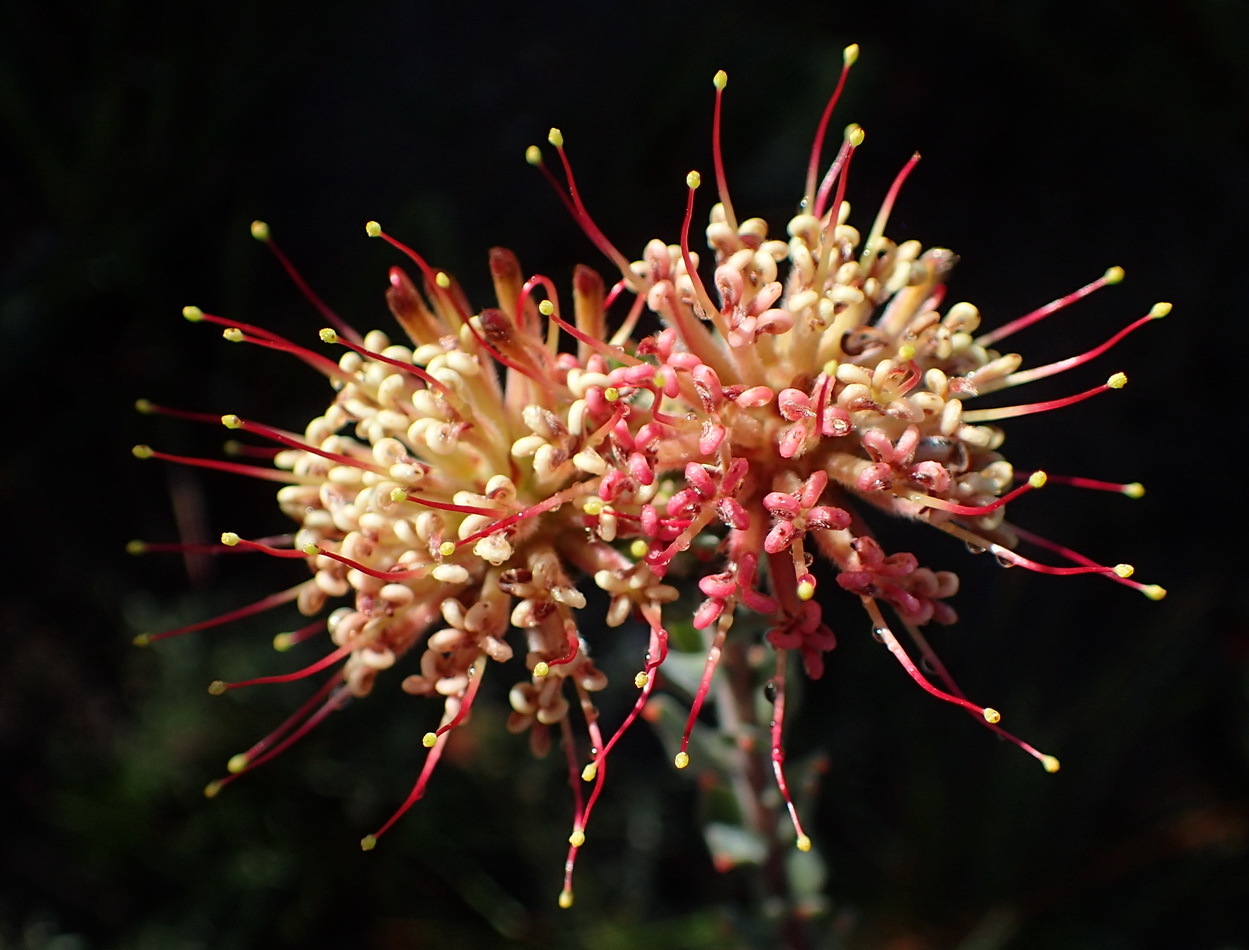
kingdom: Plantae
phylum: Tracheophyta
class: Magnoliopsida
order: Proteales
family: Proteaceae
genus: Leucospermum
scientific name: Leucospermum calligerum
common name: Arid pincushion
